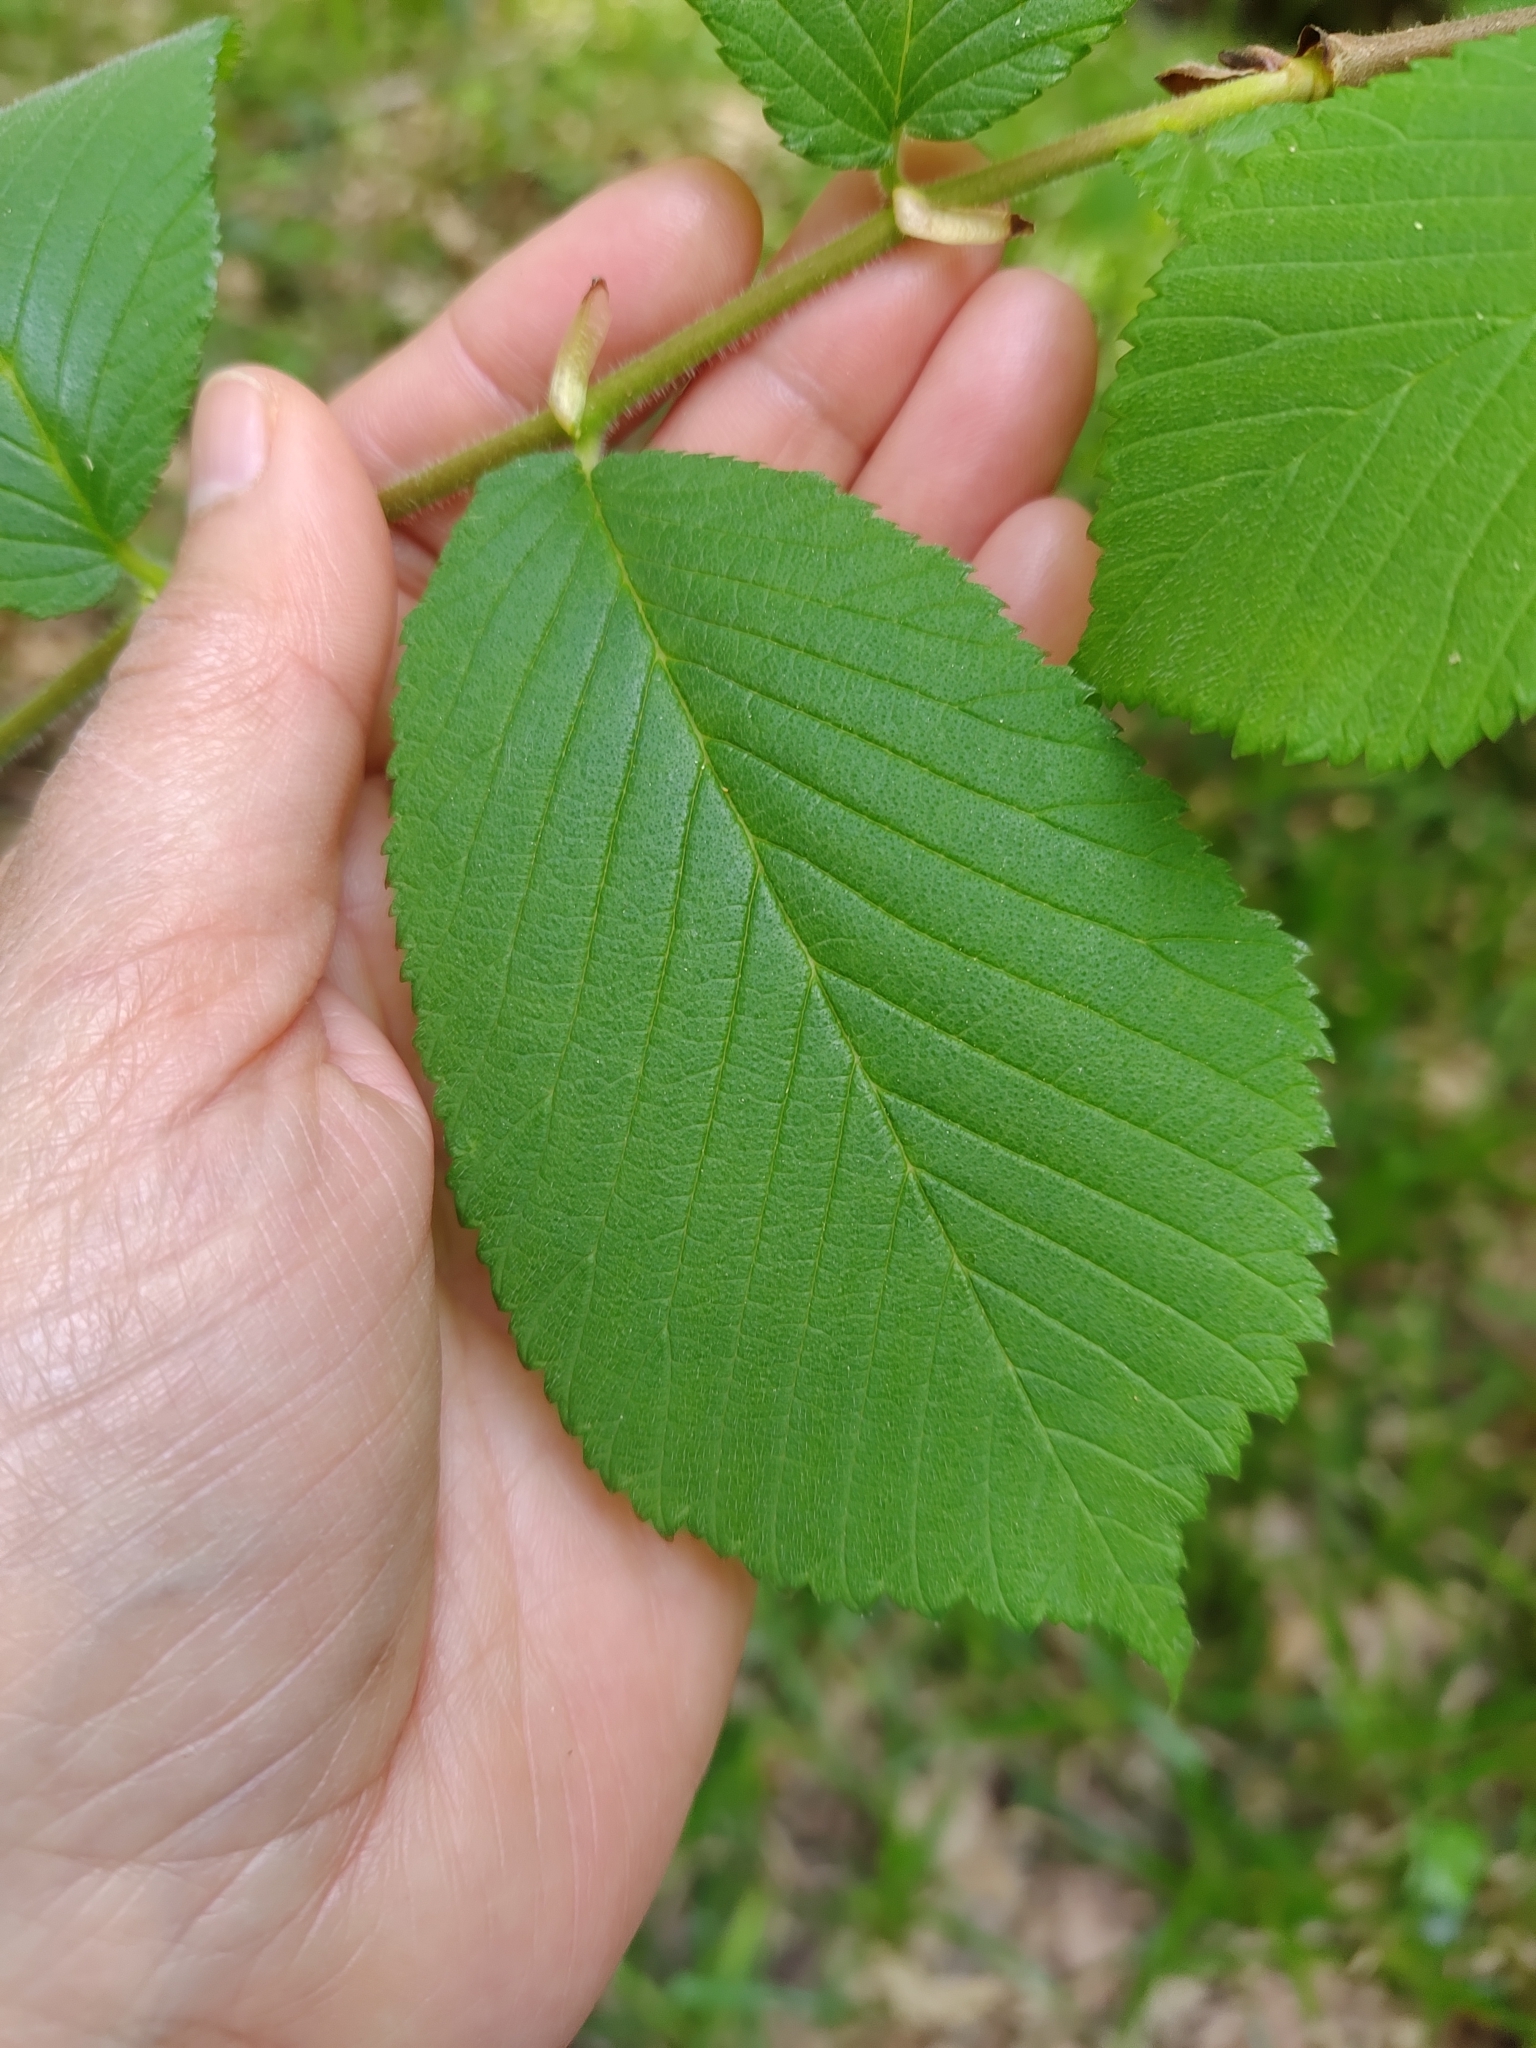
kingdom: Plantae
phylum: Tracheophyta
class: Magnoliopsida
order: Rosales
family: Ulmaceae
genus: Ulmus
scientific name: Ulmus glabra
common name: Wych elm
